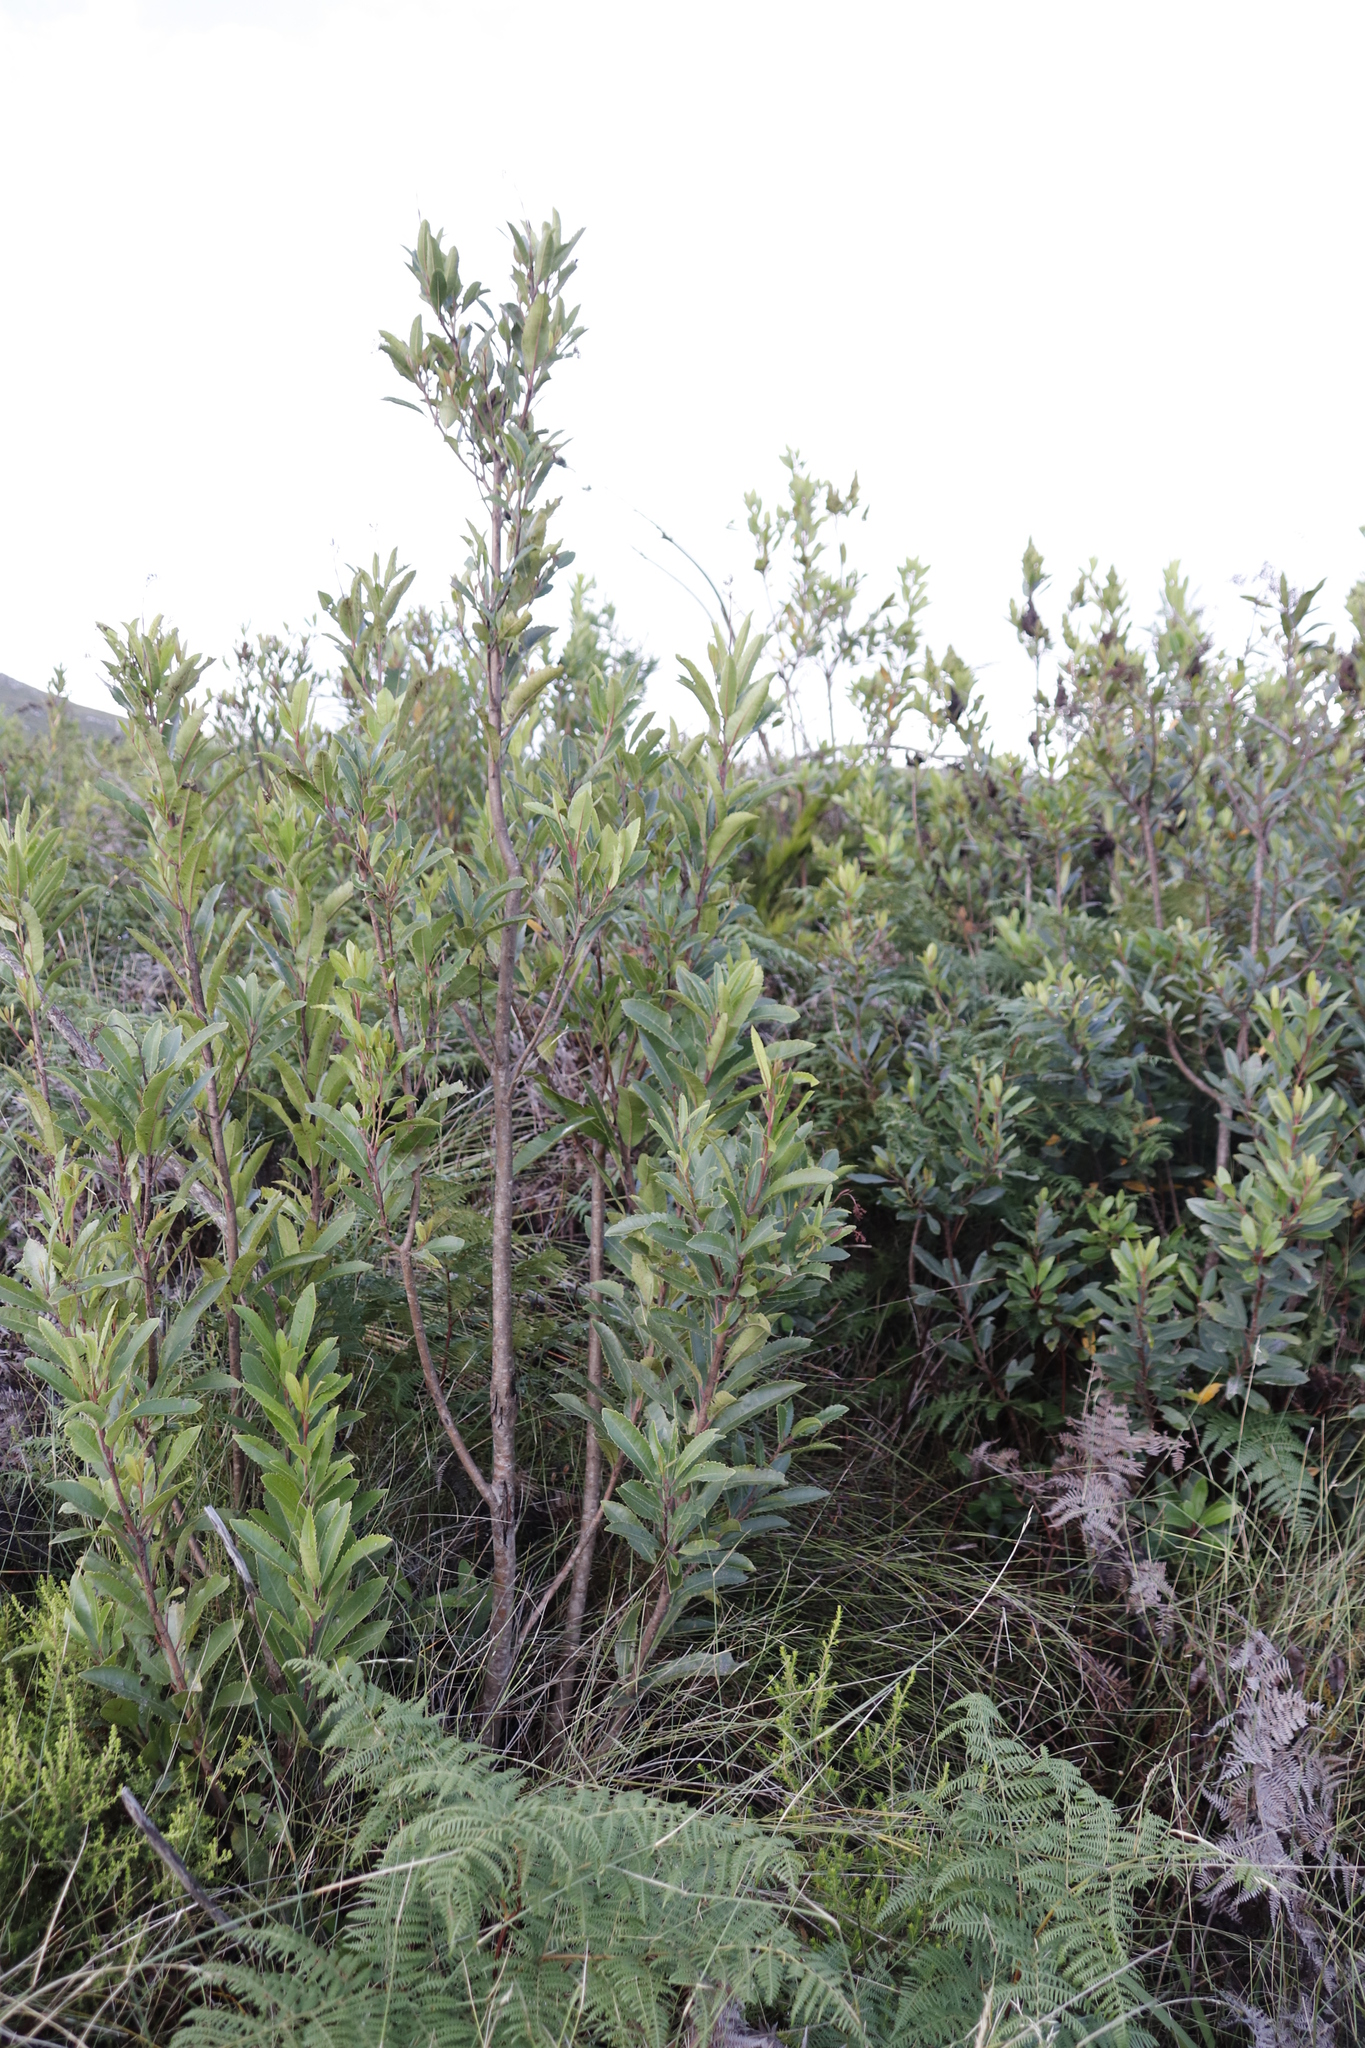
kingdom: Plantae
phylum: Tracheophyta
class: Magnoliopsida
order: Sapindales
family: Anacardiaceae
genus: Laurophyllus
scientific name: Laurophyllus capensis
